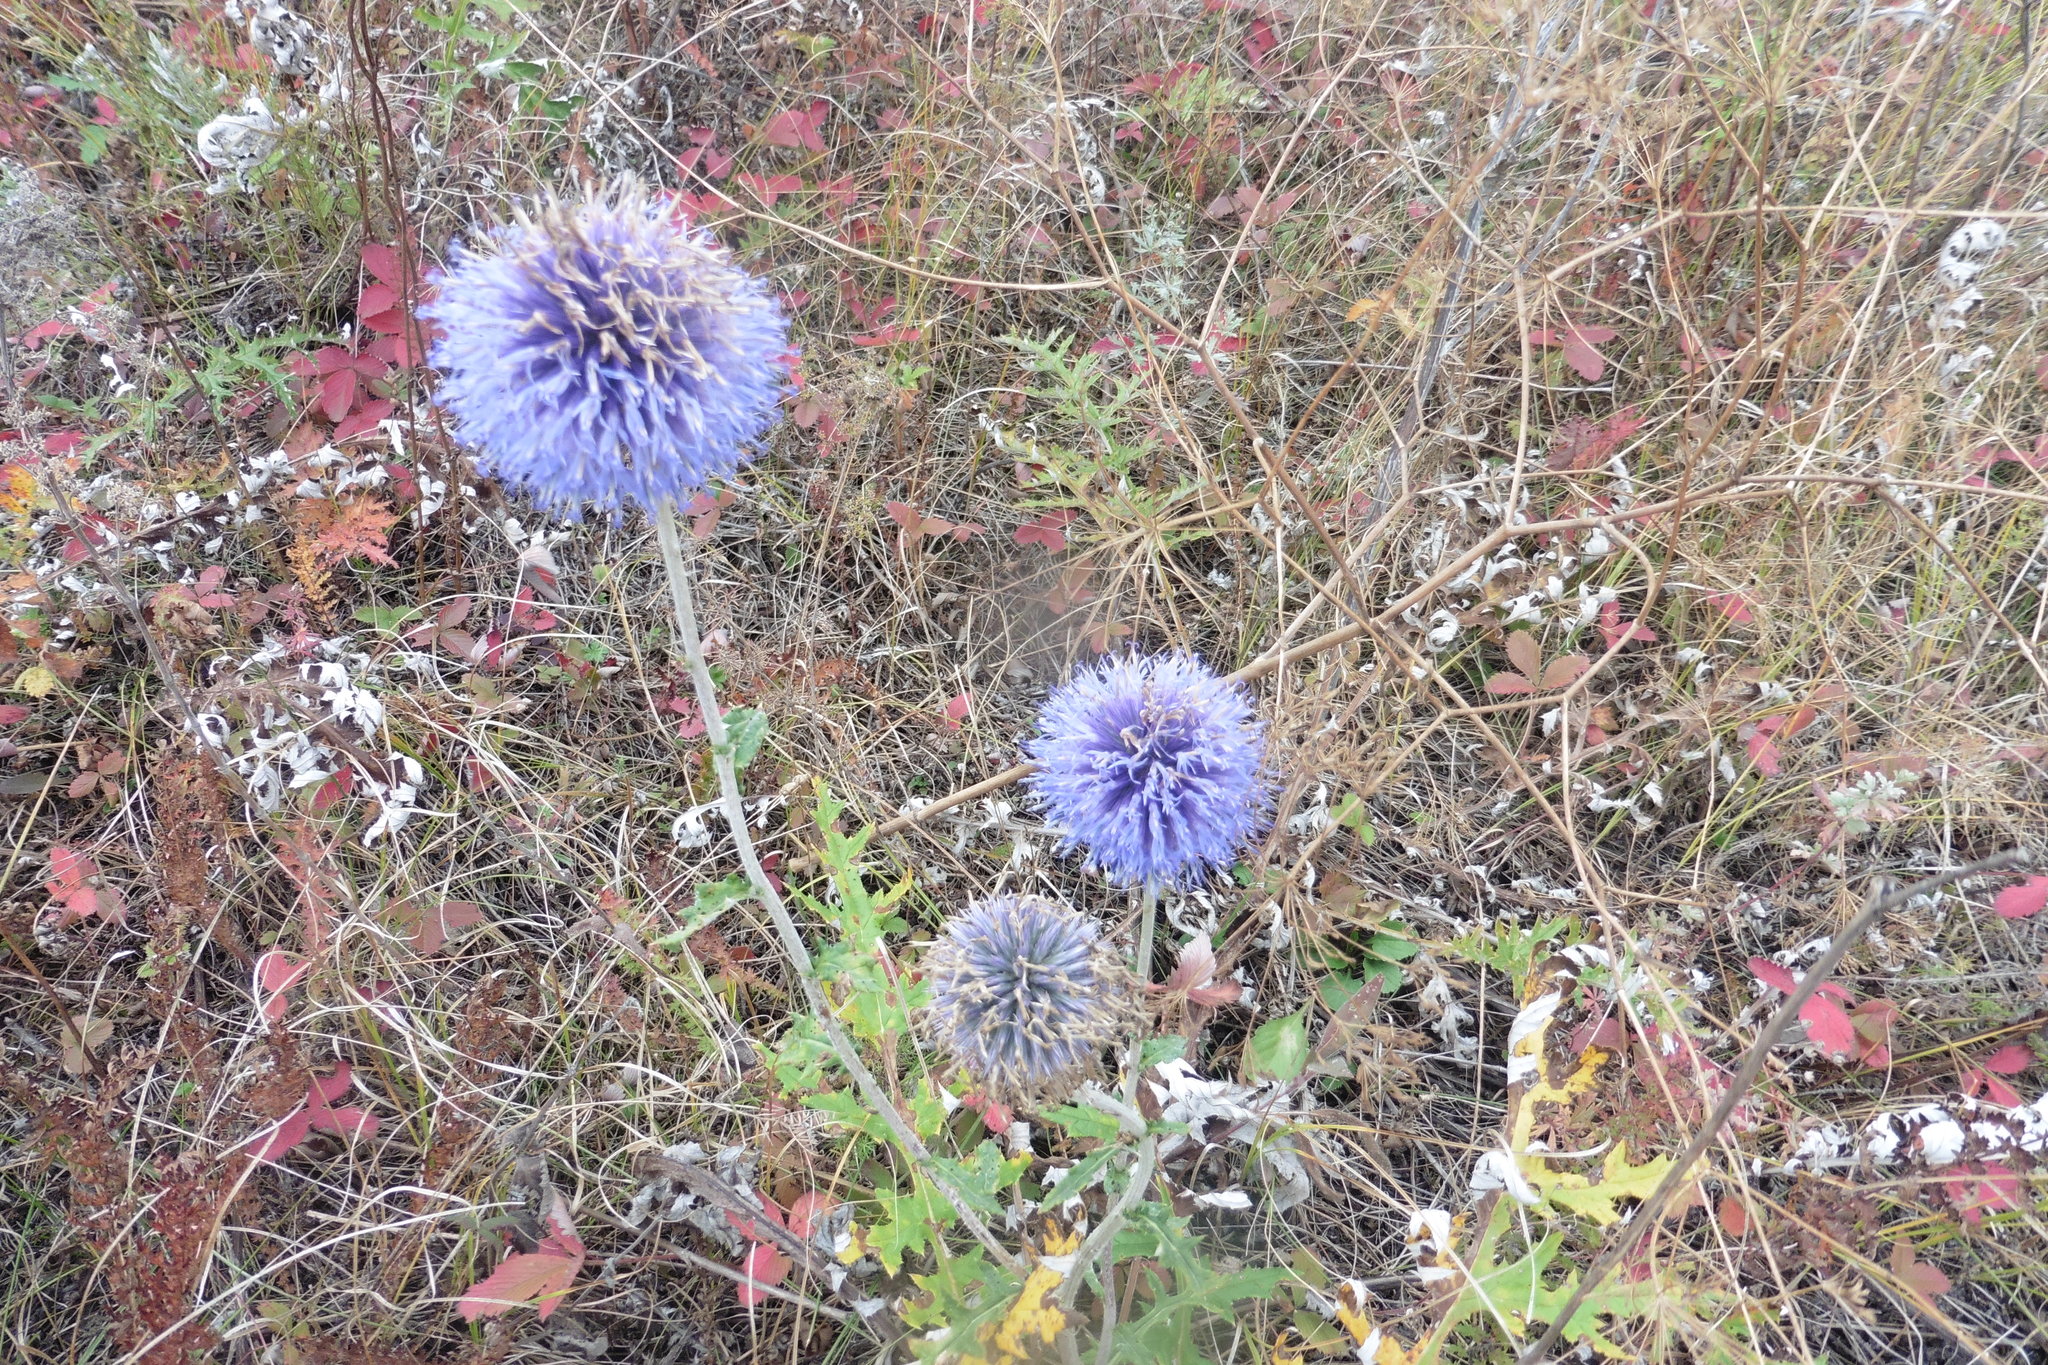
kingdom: Plantae
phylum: Tracheophyta
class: Magnoliopsida
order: Asterales
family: Asteraceae
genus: Echinops
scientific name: Echinops ritro
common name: Globe thistle
